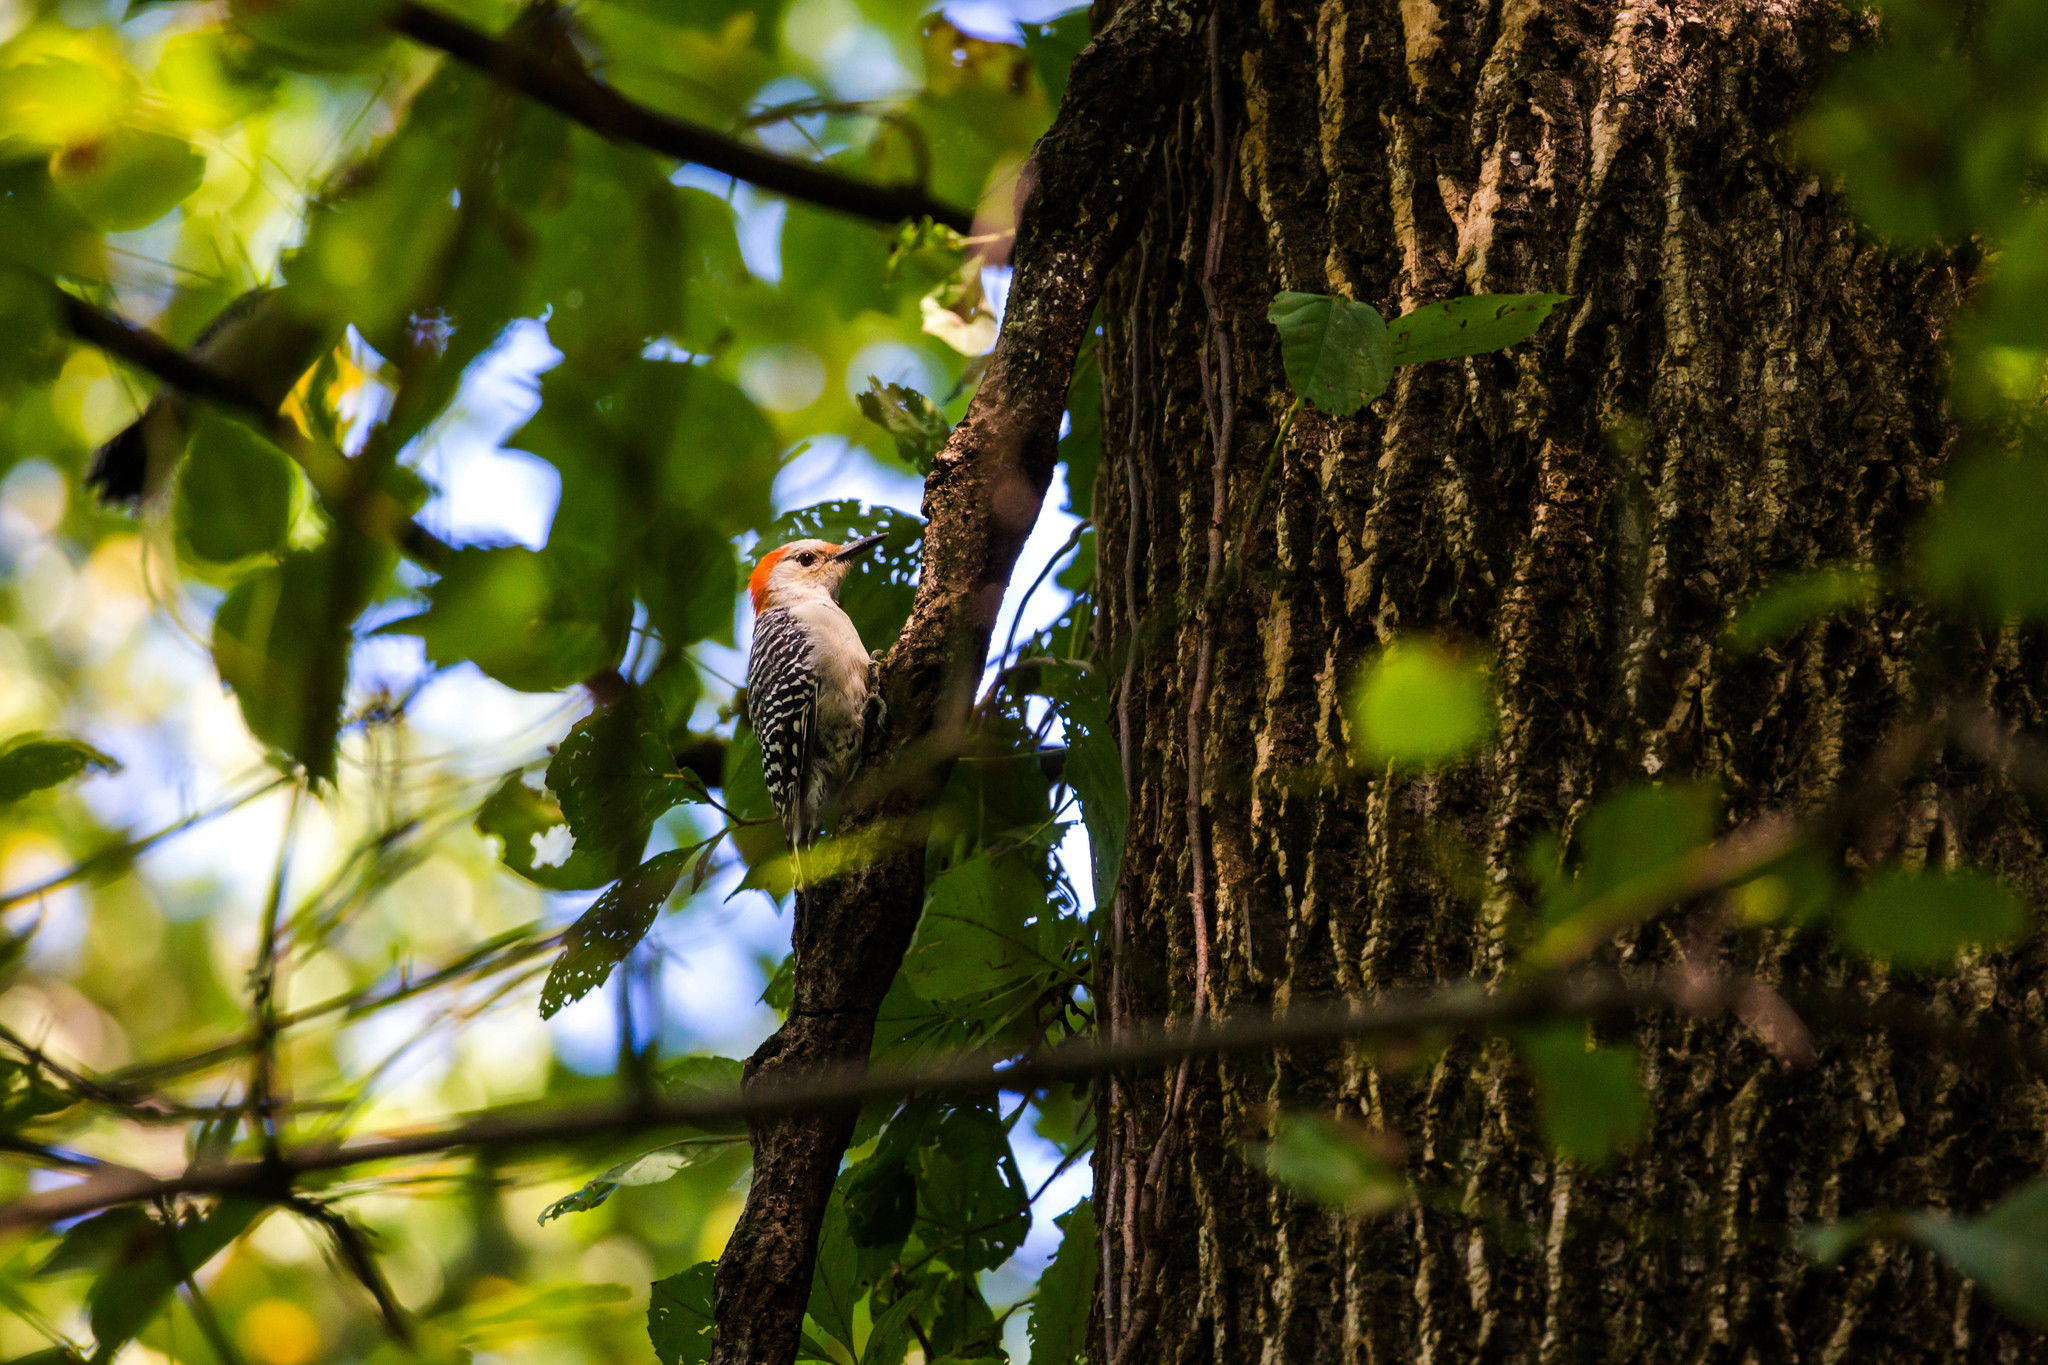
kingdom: Animalia
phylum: Chordata
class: Aves
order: Piciformes
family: Picidae
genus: Melanerpes
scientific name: Melanerpes carolinus
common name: Red-bellied woodpecker
